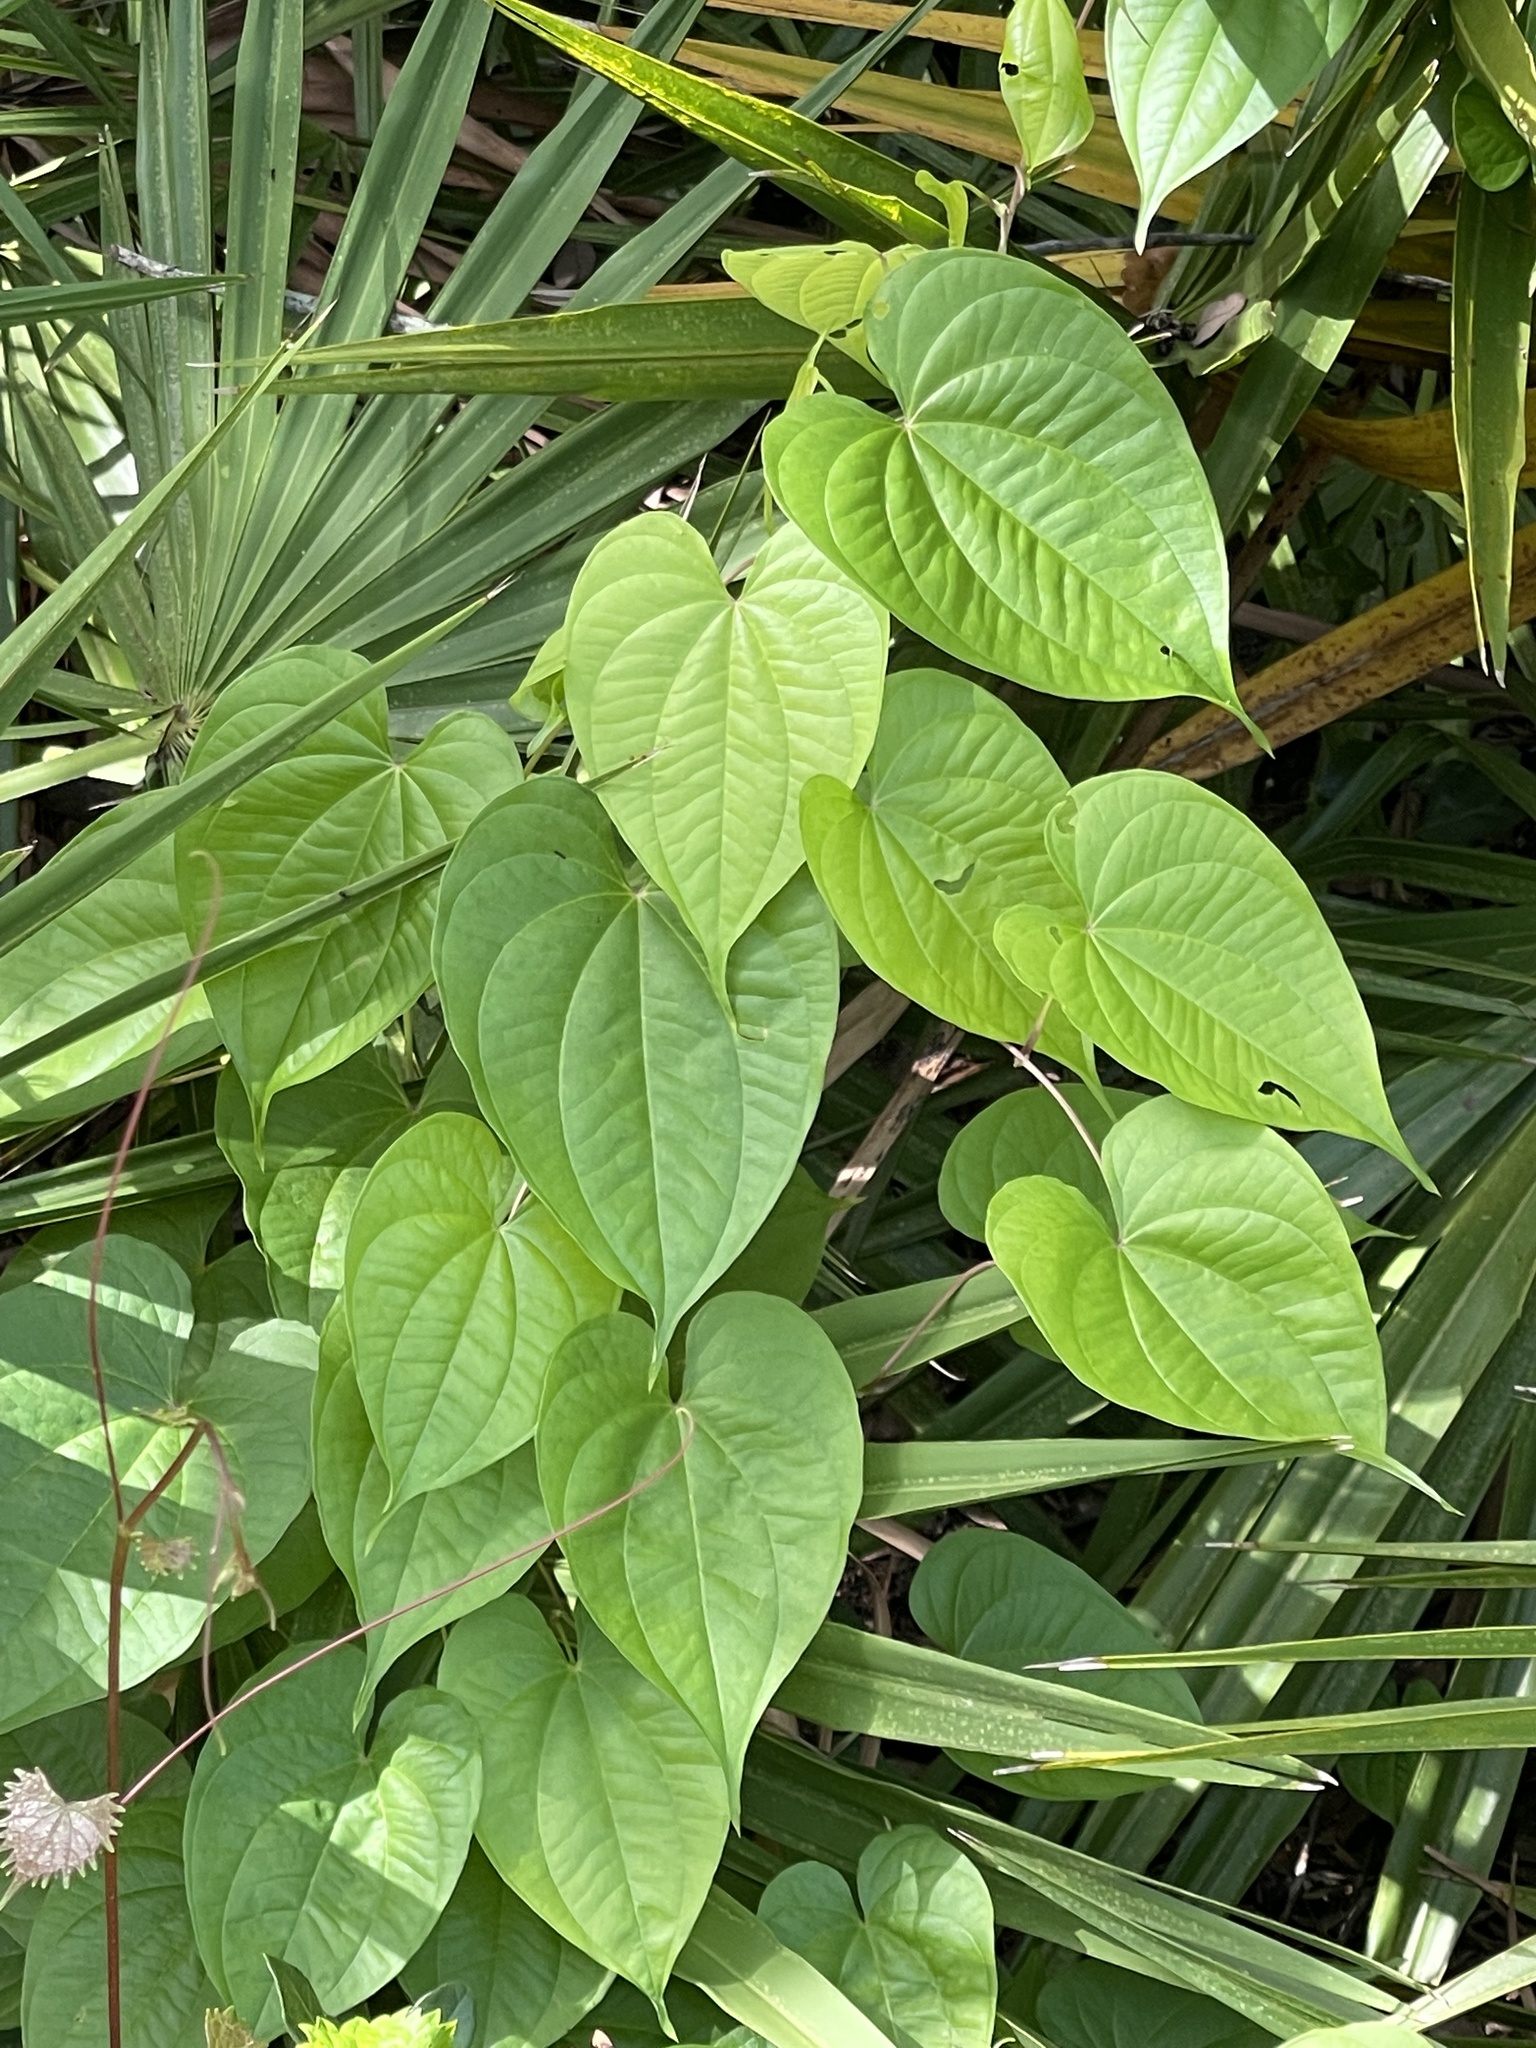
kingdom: Plantae
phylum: Tracheophyta
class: Liliopsida
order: Dioscoreales
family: Dioscoreaceae
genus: Dioscorea
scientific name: Dioscorea bulbifera
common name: Air yam
